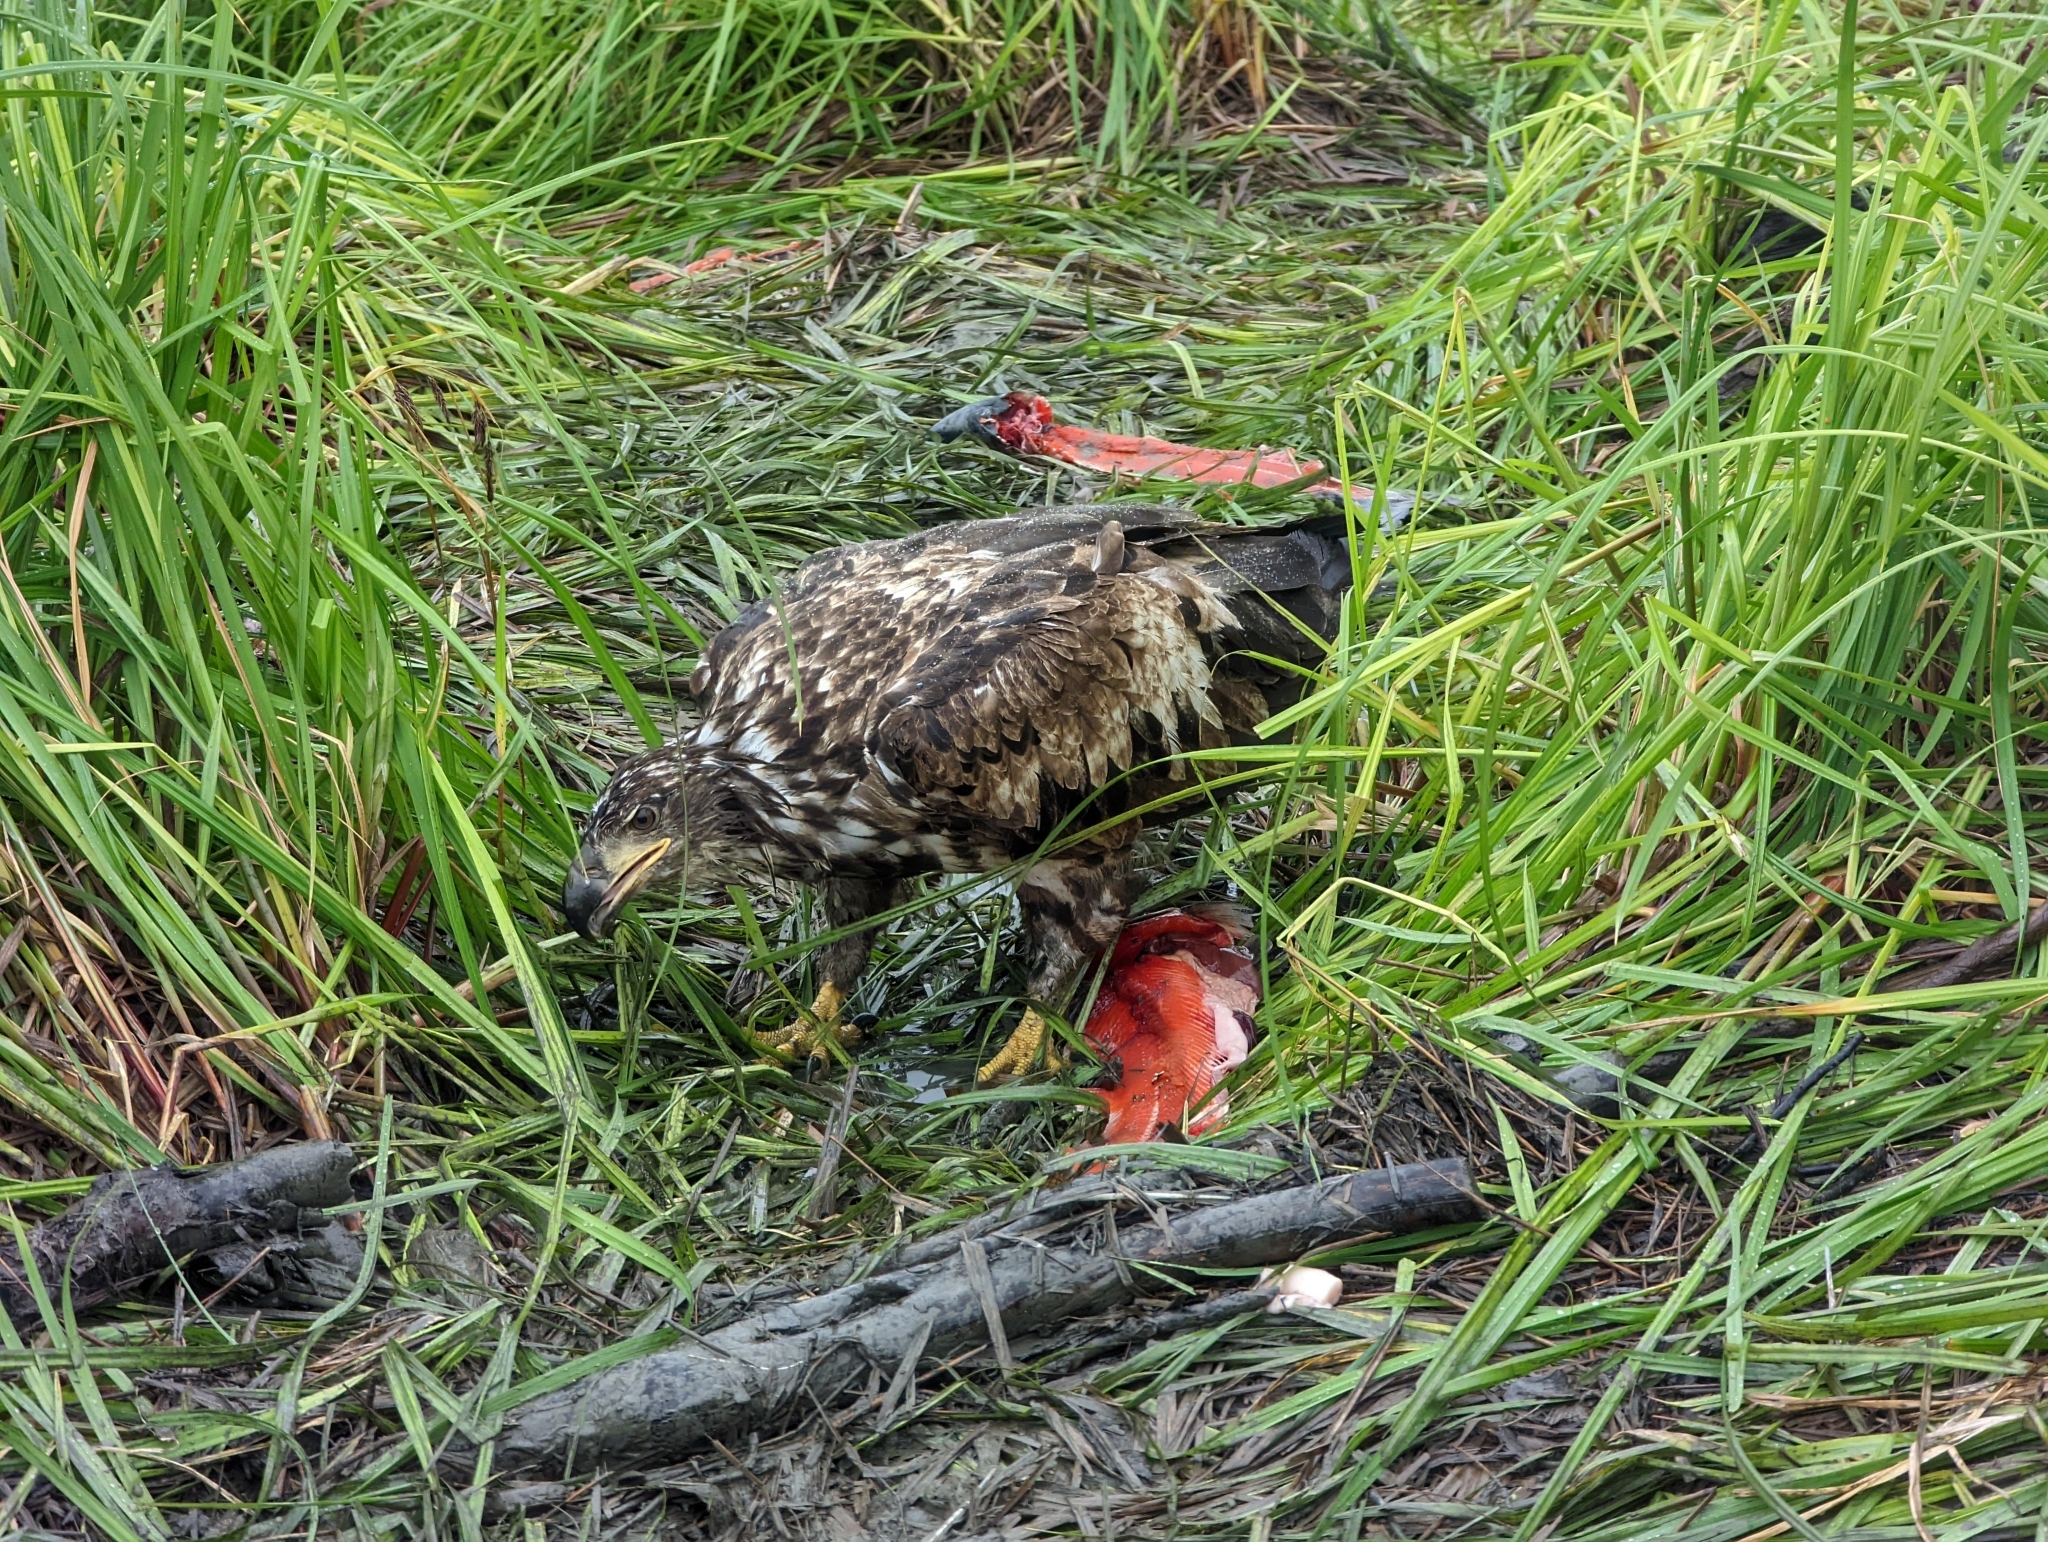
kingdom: Animalia
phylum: Chordata
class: Aves
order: Accipitriformes
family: Accipitridae
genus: Haliaeetus
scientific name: Haliaeetus leucocephalus
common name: Bald eagle
